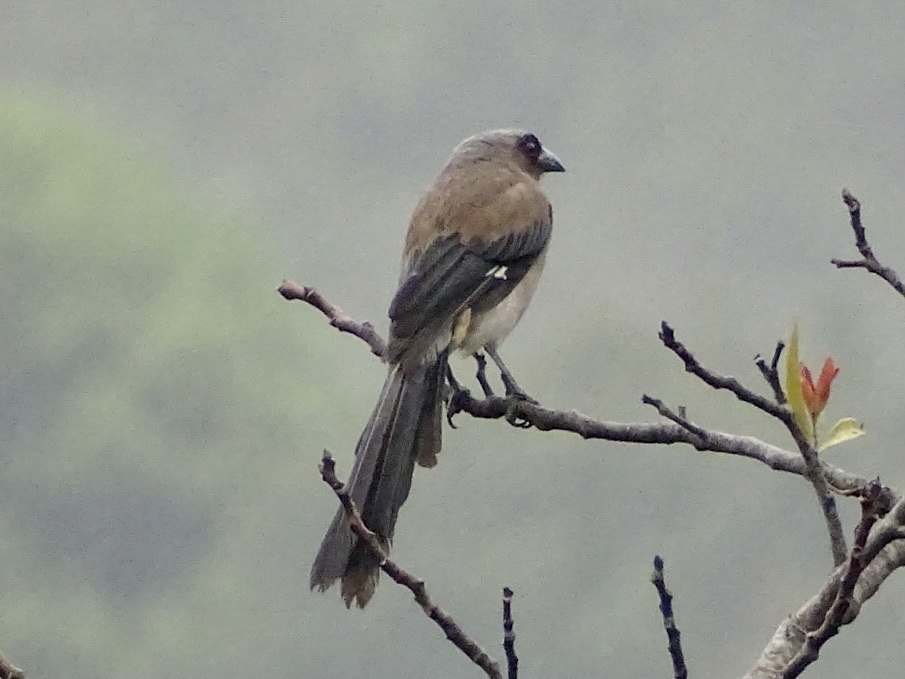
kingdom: Animalia
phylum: Chordata
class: Aves
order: Passeriformes
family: Corvidae
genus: Dendrocitta
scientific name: Dendrocitta formosae
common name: Grey treepie
